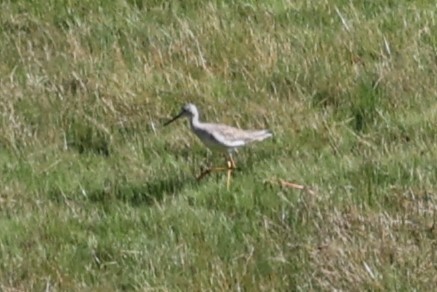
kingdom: Animalia
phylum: Chordata
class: Aves
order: Charadriiformes
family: Scolopacidae
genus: Tringa
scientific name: Tringa melanoleuca
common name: Greater yellowlegs
